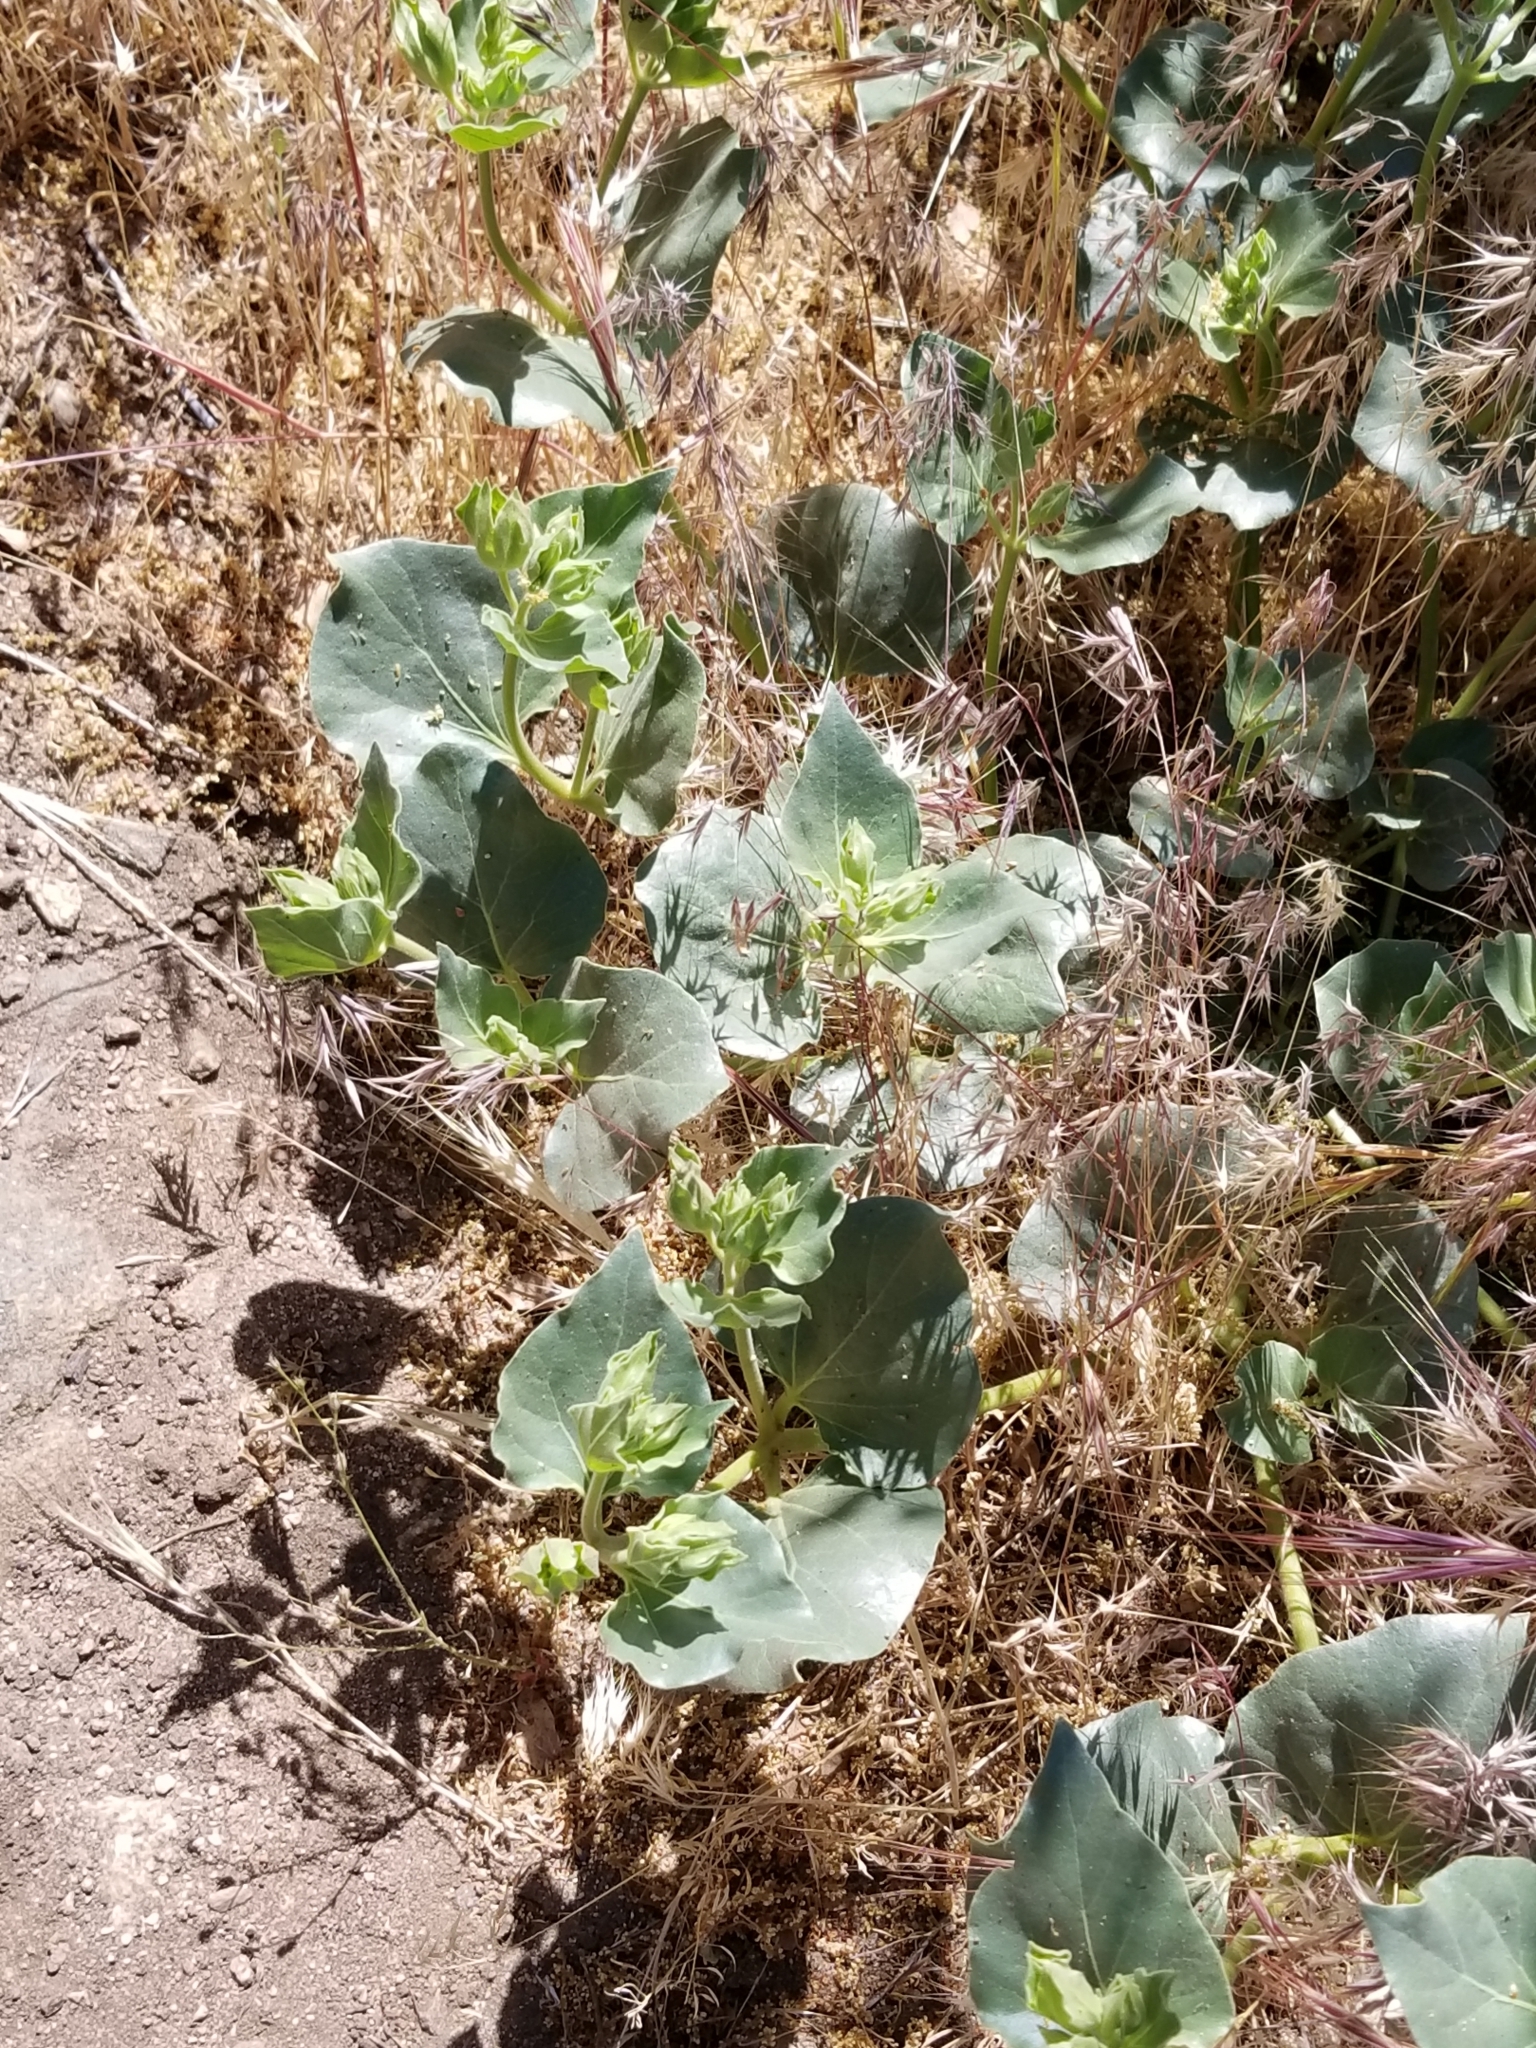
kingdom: Plantae
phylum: Tracheophyta
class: Magnoliopsida
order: Caryophyllales
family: Nyctaginaceae
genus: Mirabilis
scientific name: Mirabilis multiflora
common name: Froebel's four-o'clock
